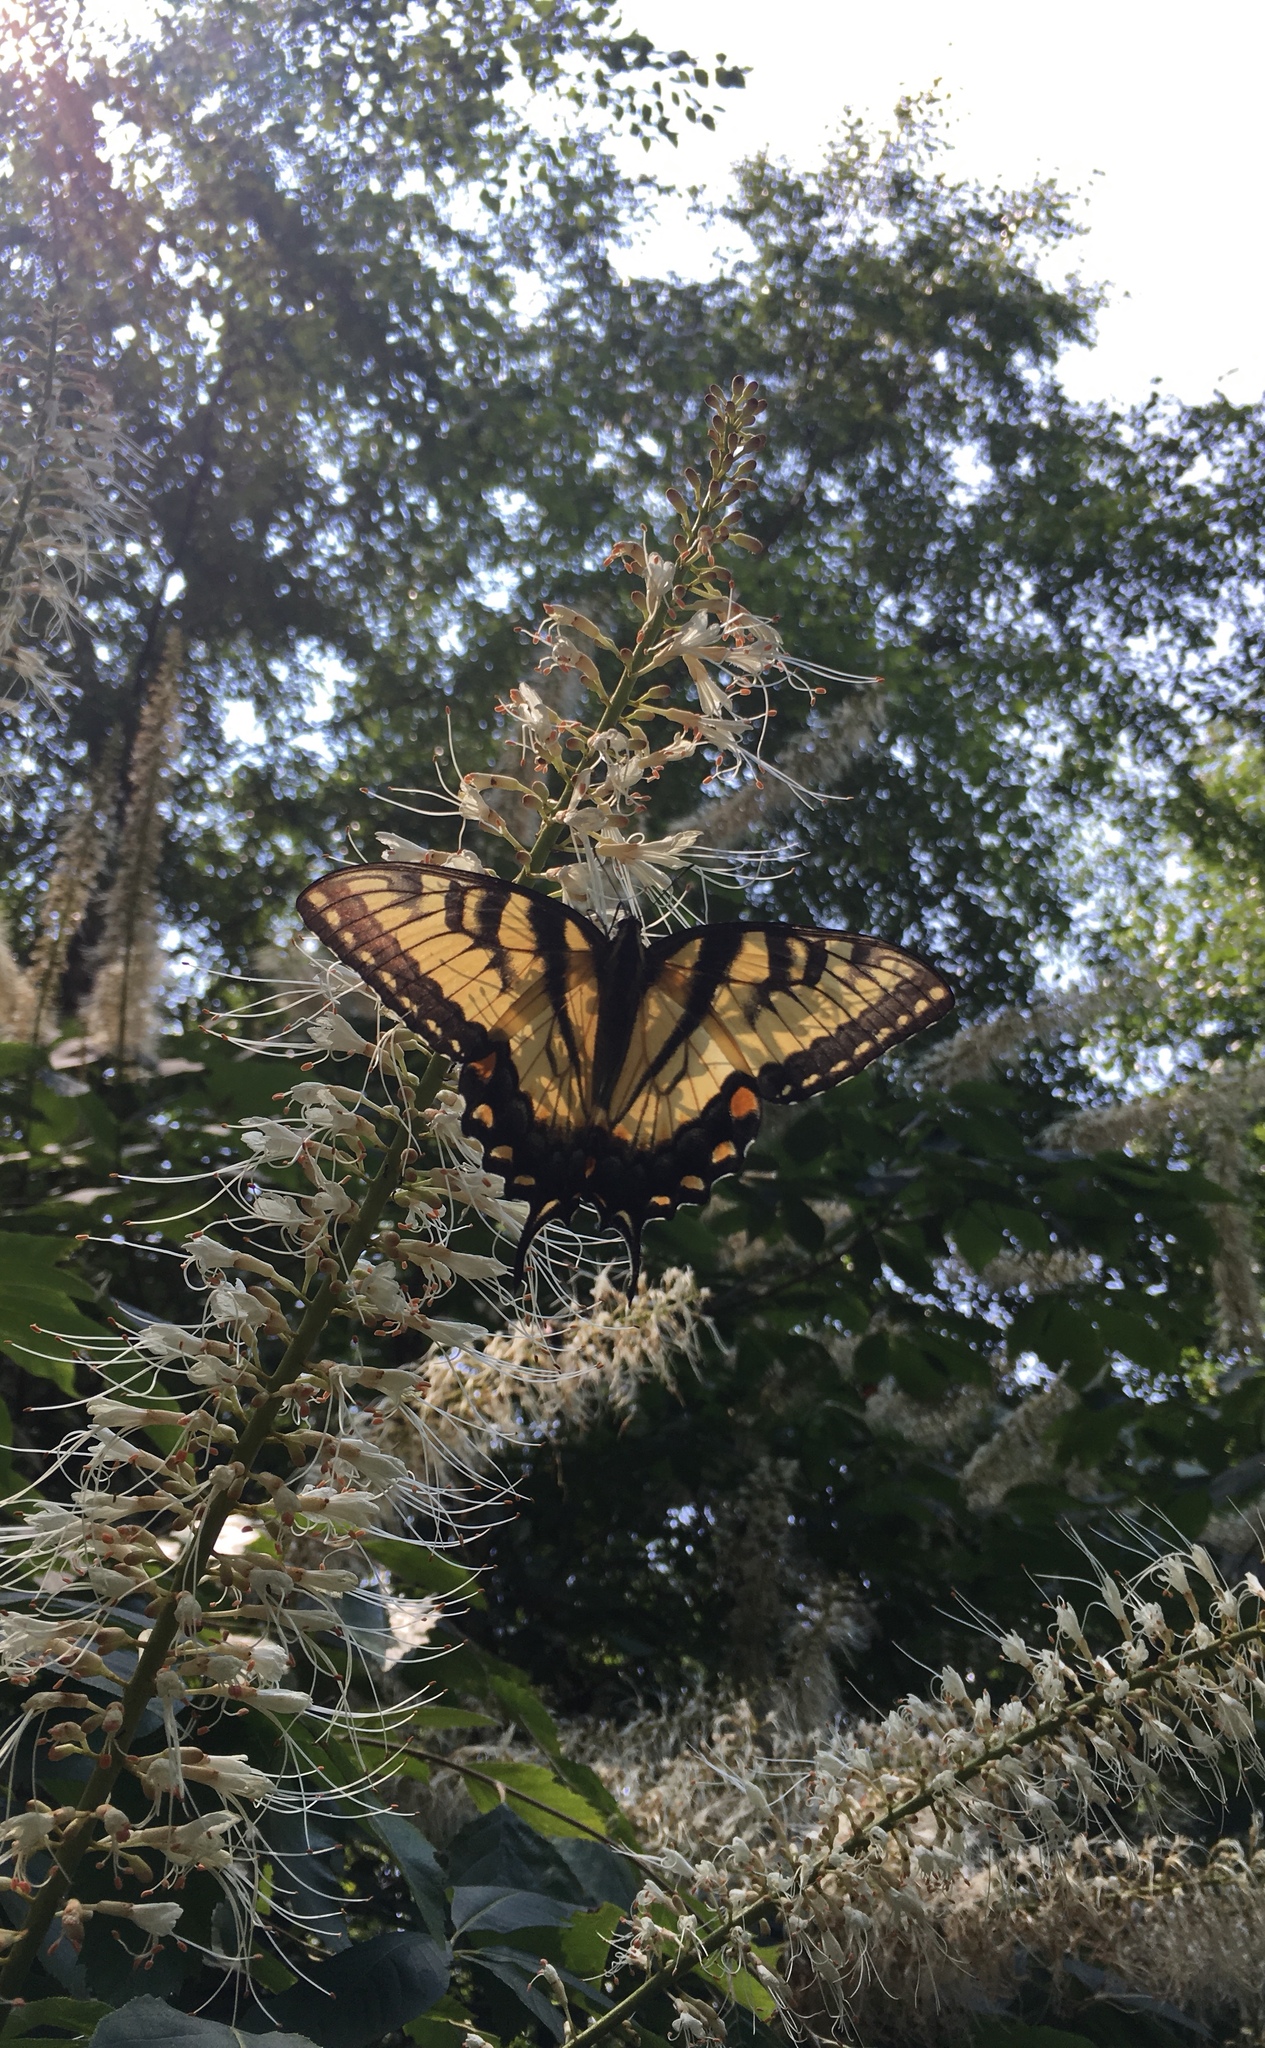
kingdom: Animalia
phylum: Arthropoda
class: Insecta
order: Lepidoptera
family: Papilionidae
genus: Papilio
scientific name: Papilio glaucus
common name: Tiger swallowtail
